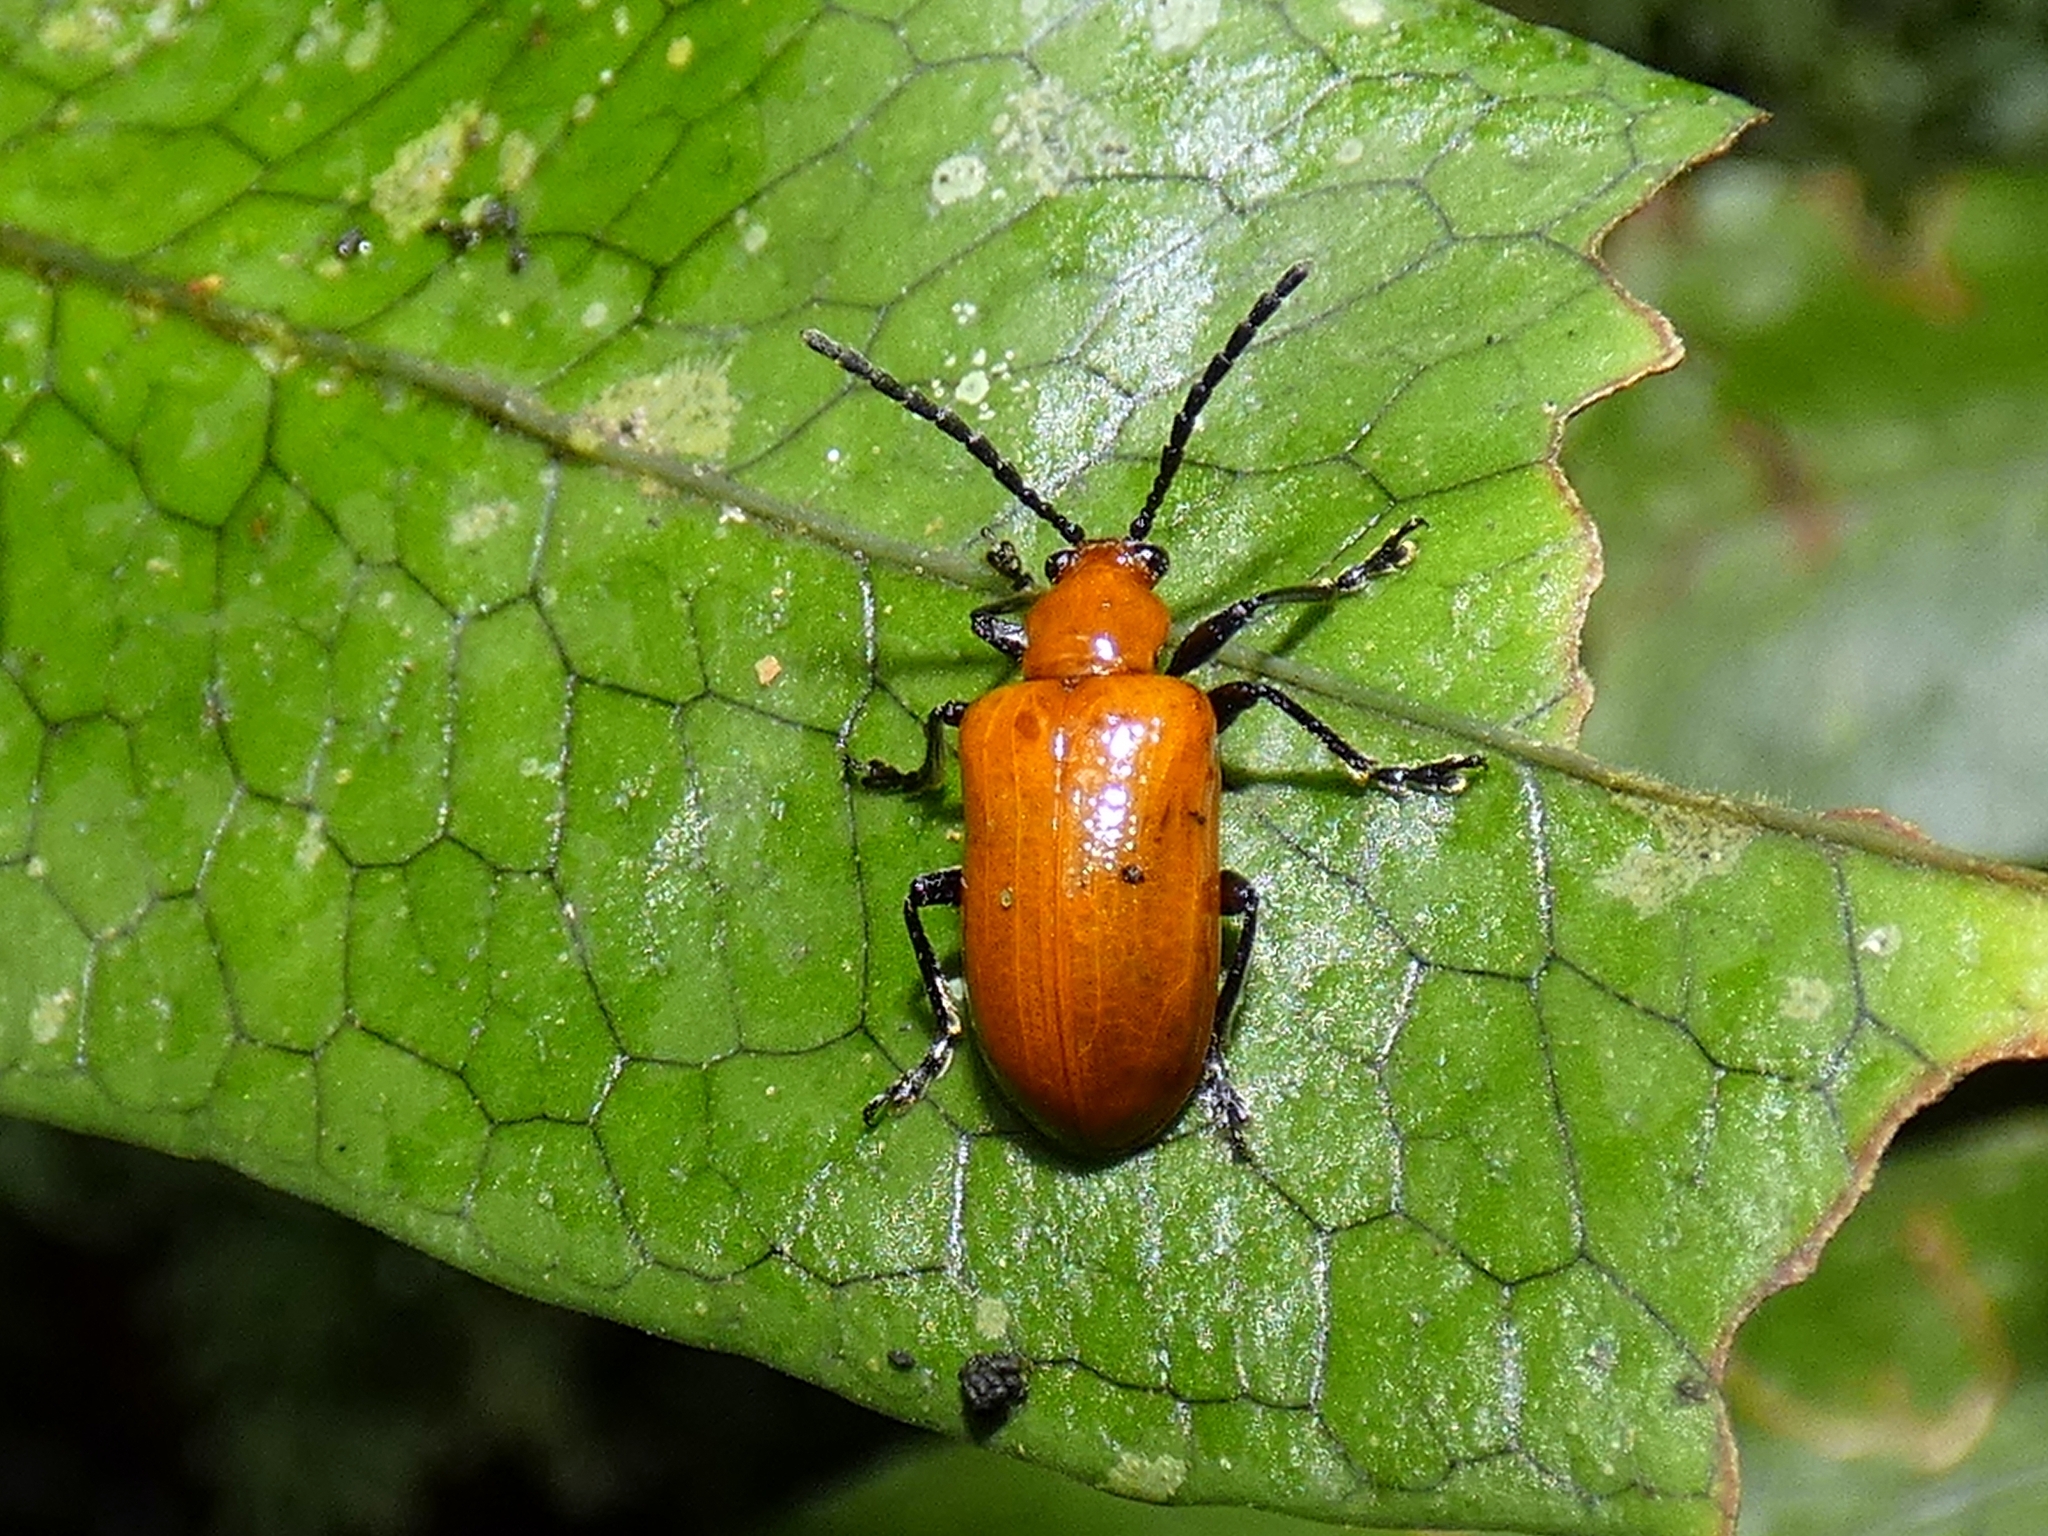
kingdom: Animalia
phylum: Arthropoda
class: Insecta
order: Coleoptera
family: Chrysomelidae
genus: Lilioceris
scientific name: Lilioceris
